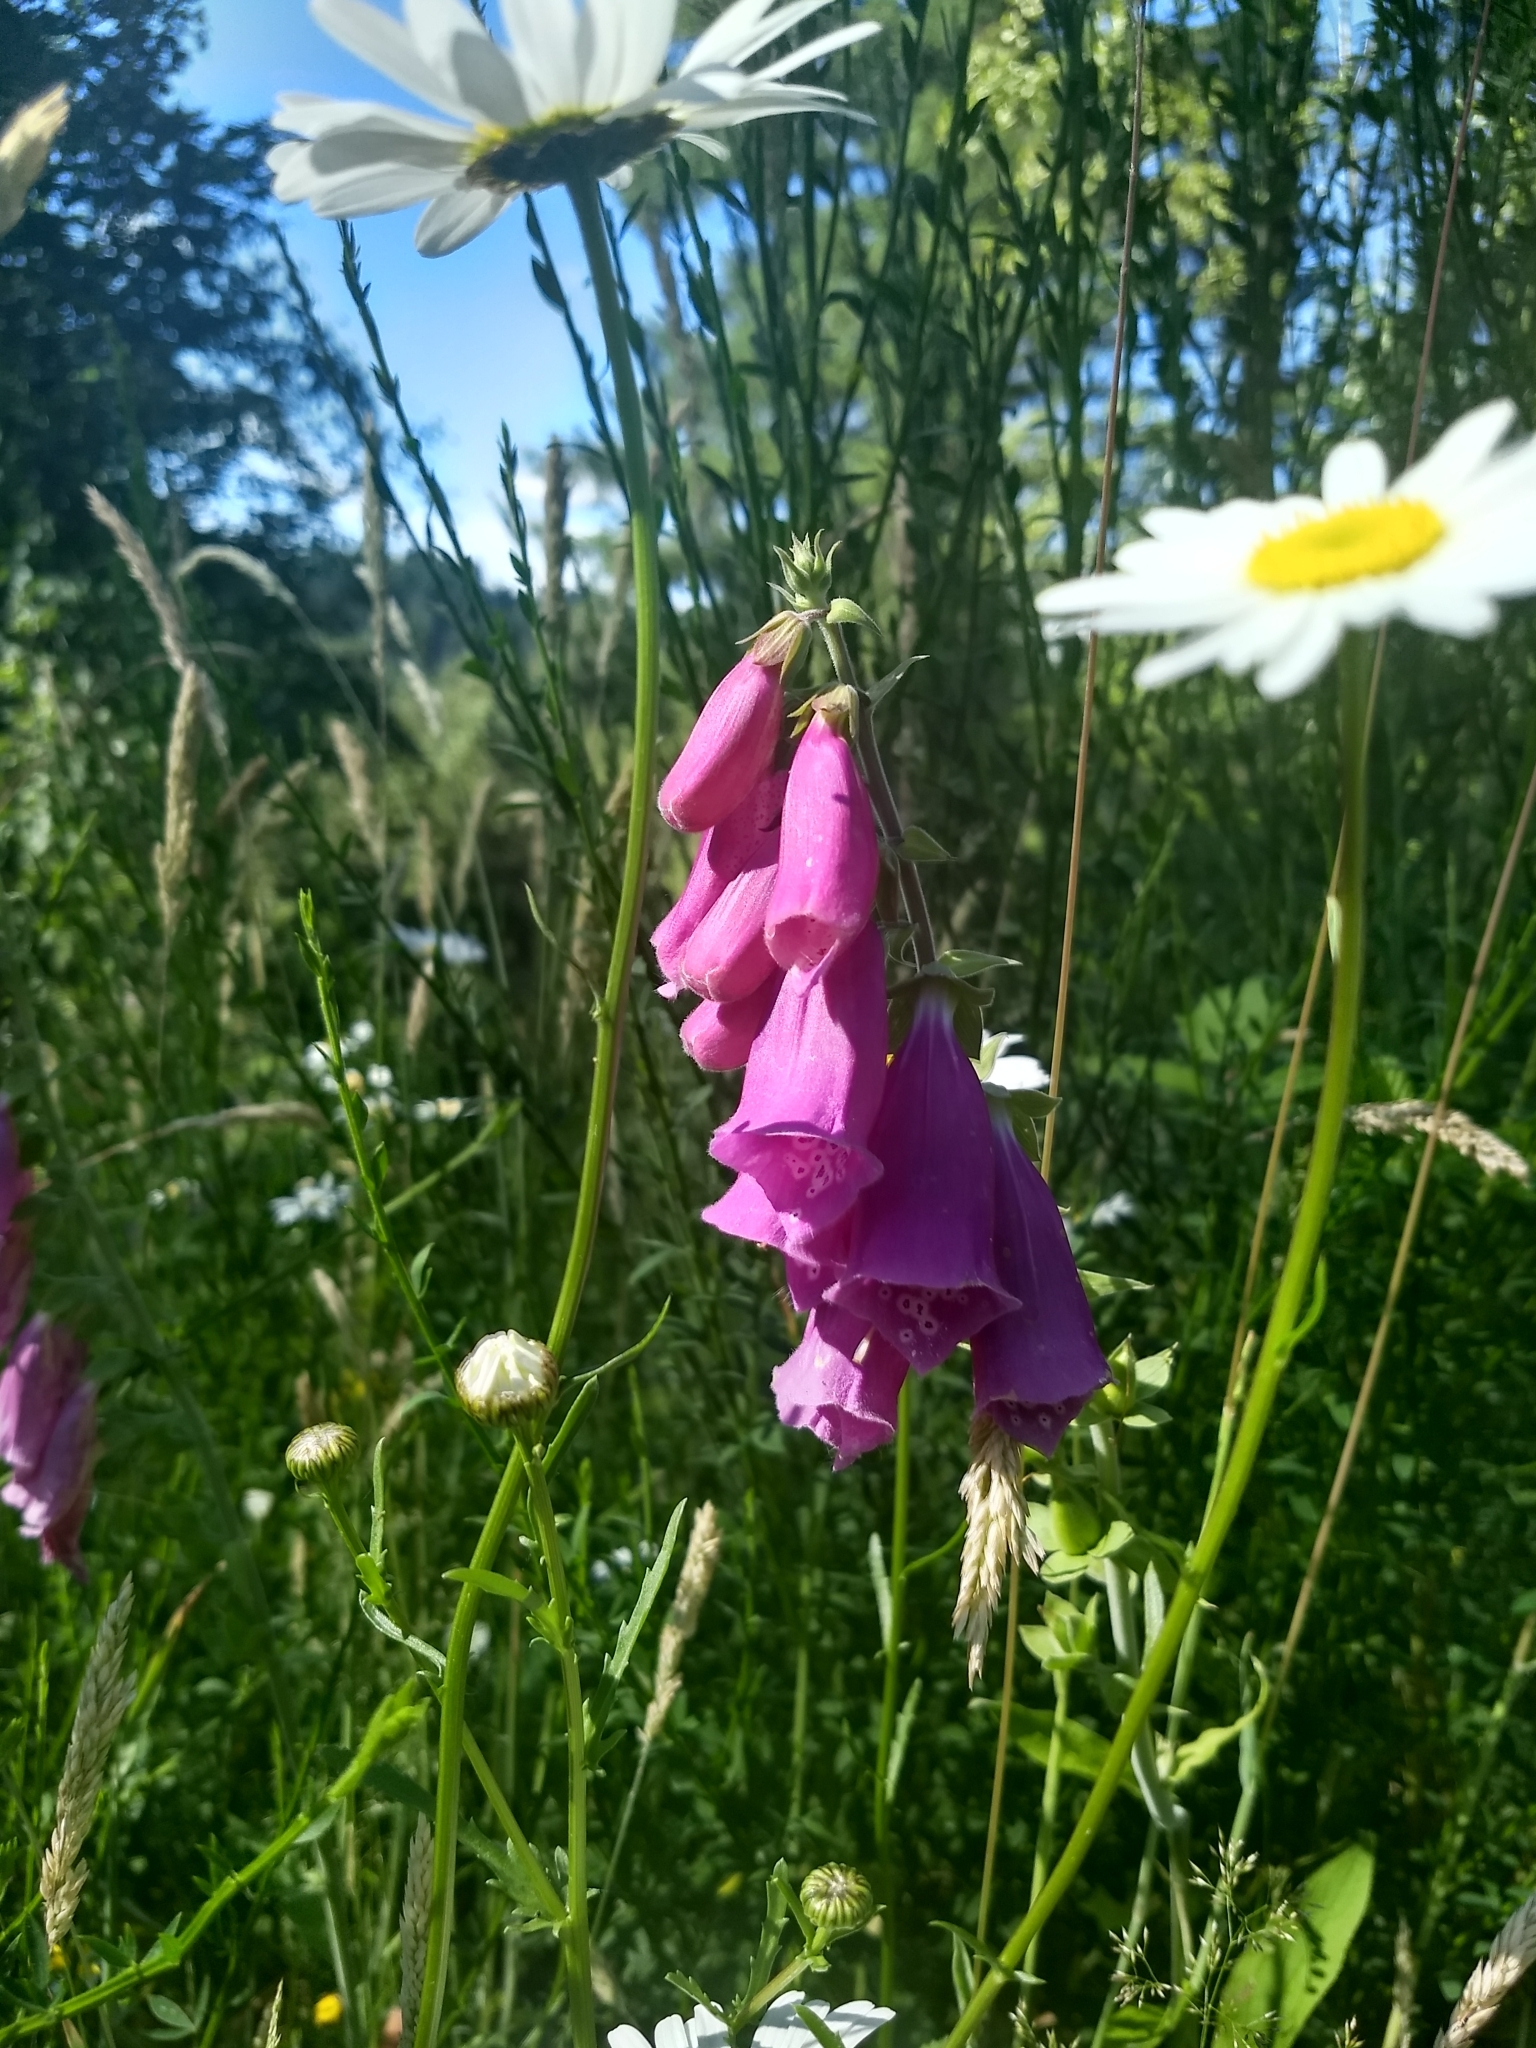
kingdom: Plantae
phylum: Tracheophyta
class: Magnoliopsida
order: Lamiales
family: Plantaginaceae
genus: Digitalis
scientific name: Digitalis purpurea
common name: Foxglove
